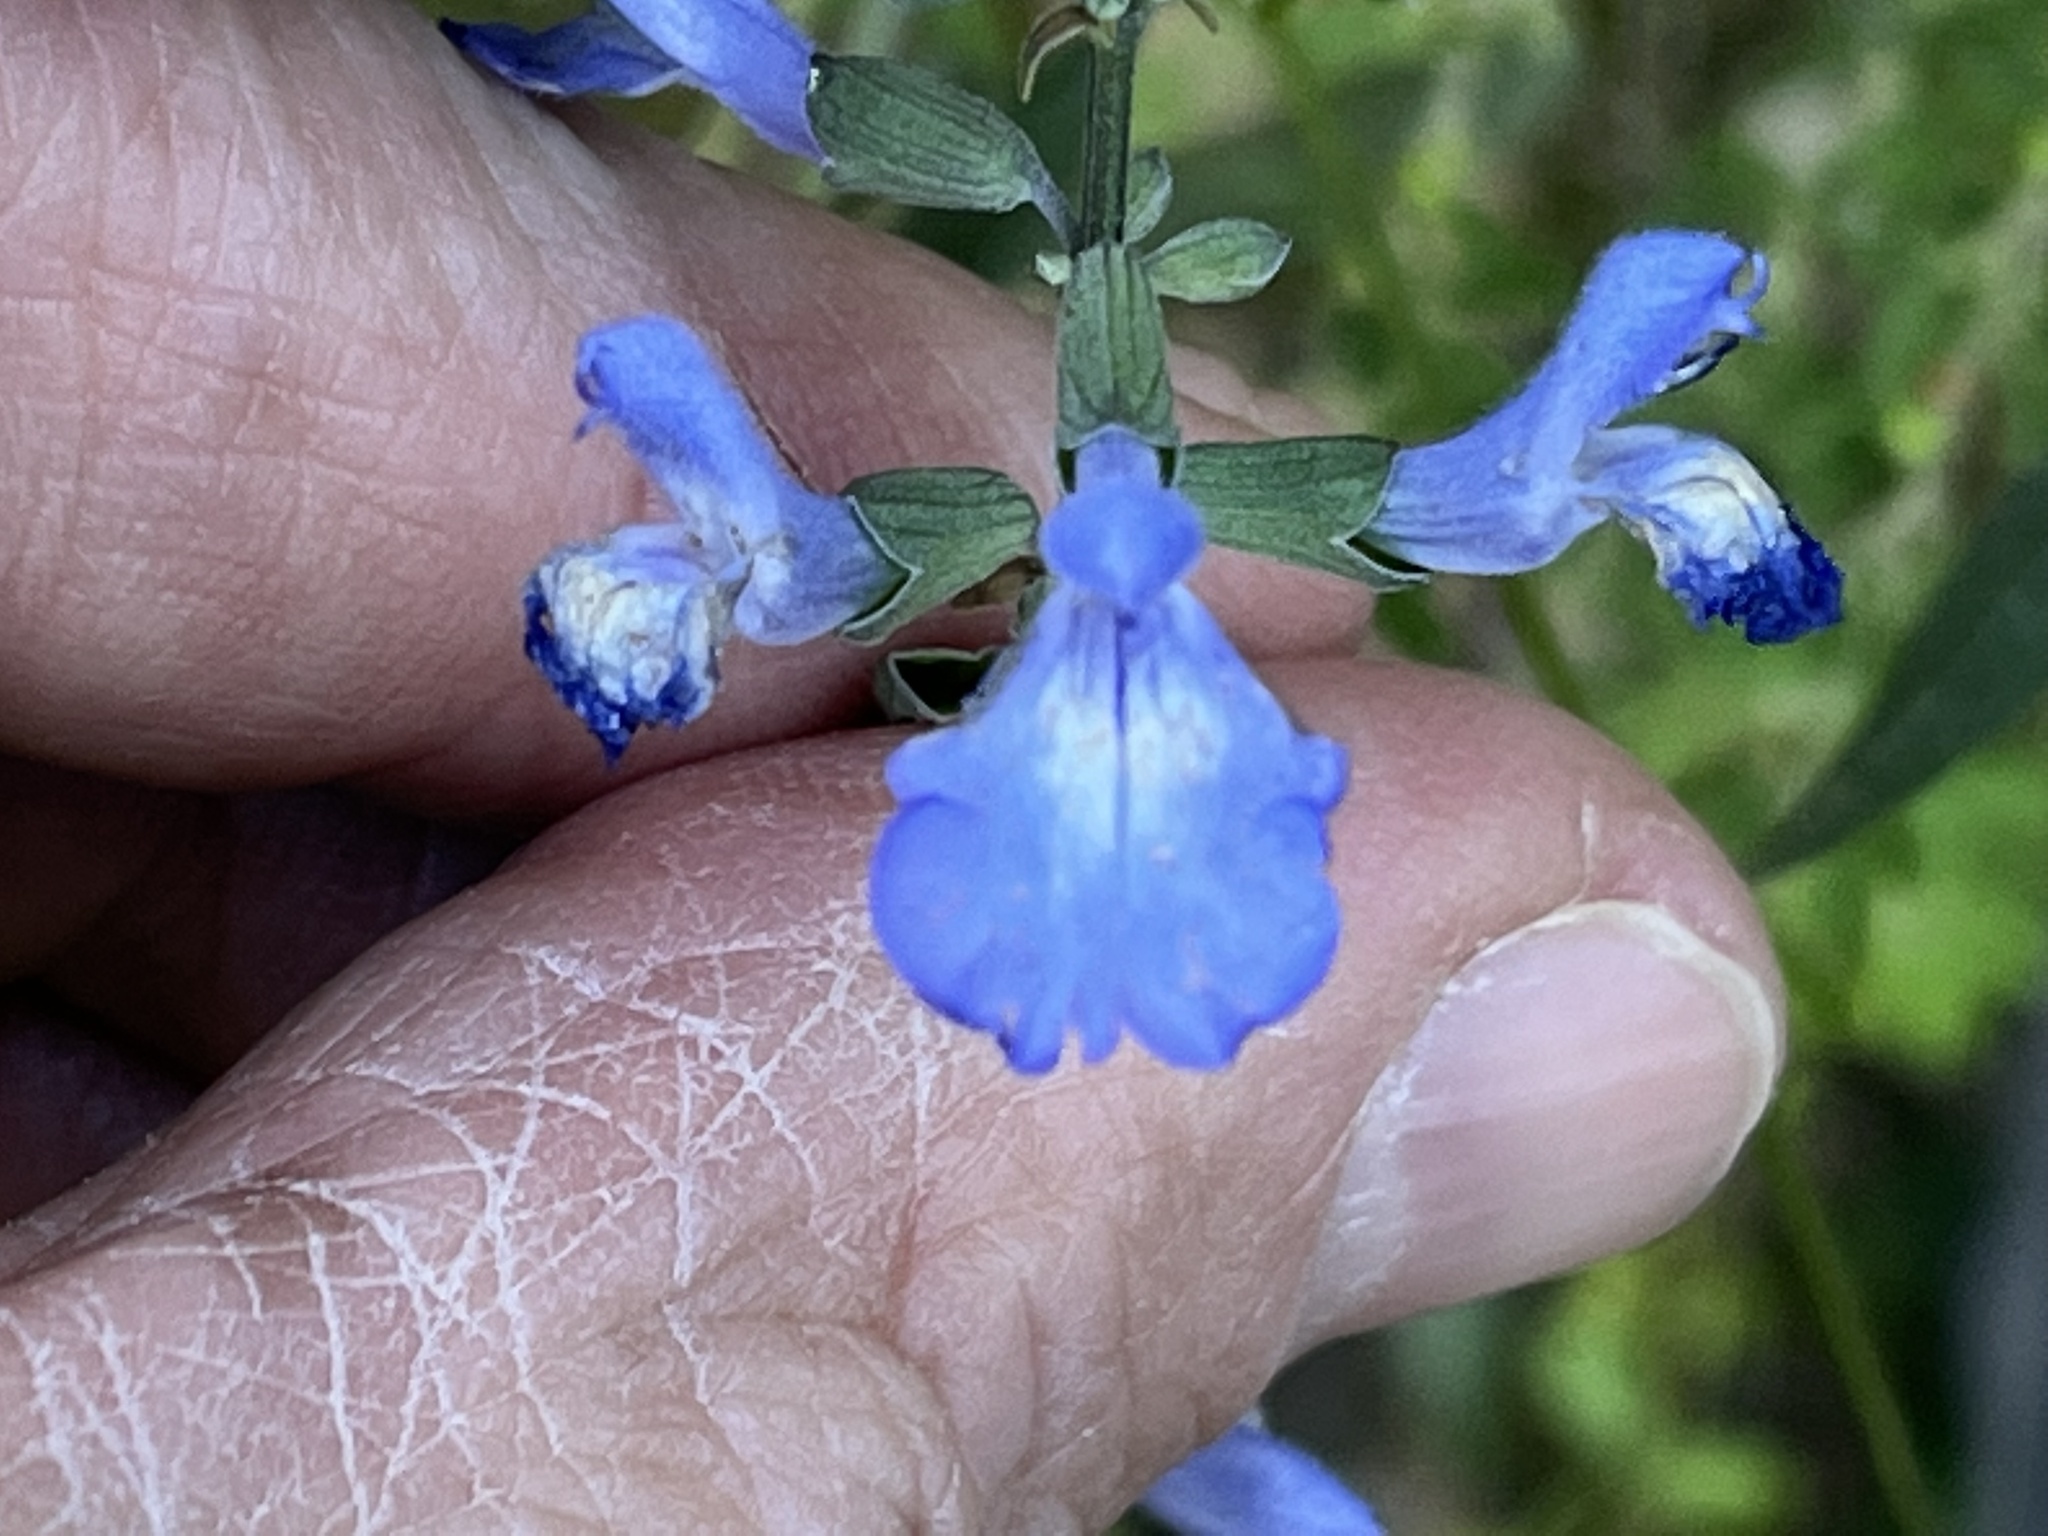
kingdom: Plantae
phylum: Tracheophyta
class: Magnoliopsida
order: Lamiales
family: Lamiaceae
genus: Salvia
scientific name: Salvia azurea
